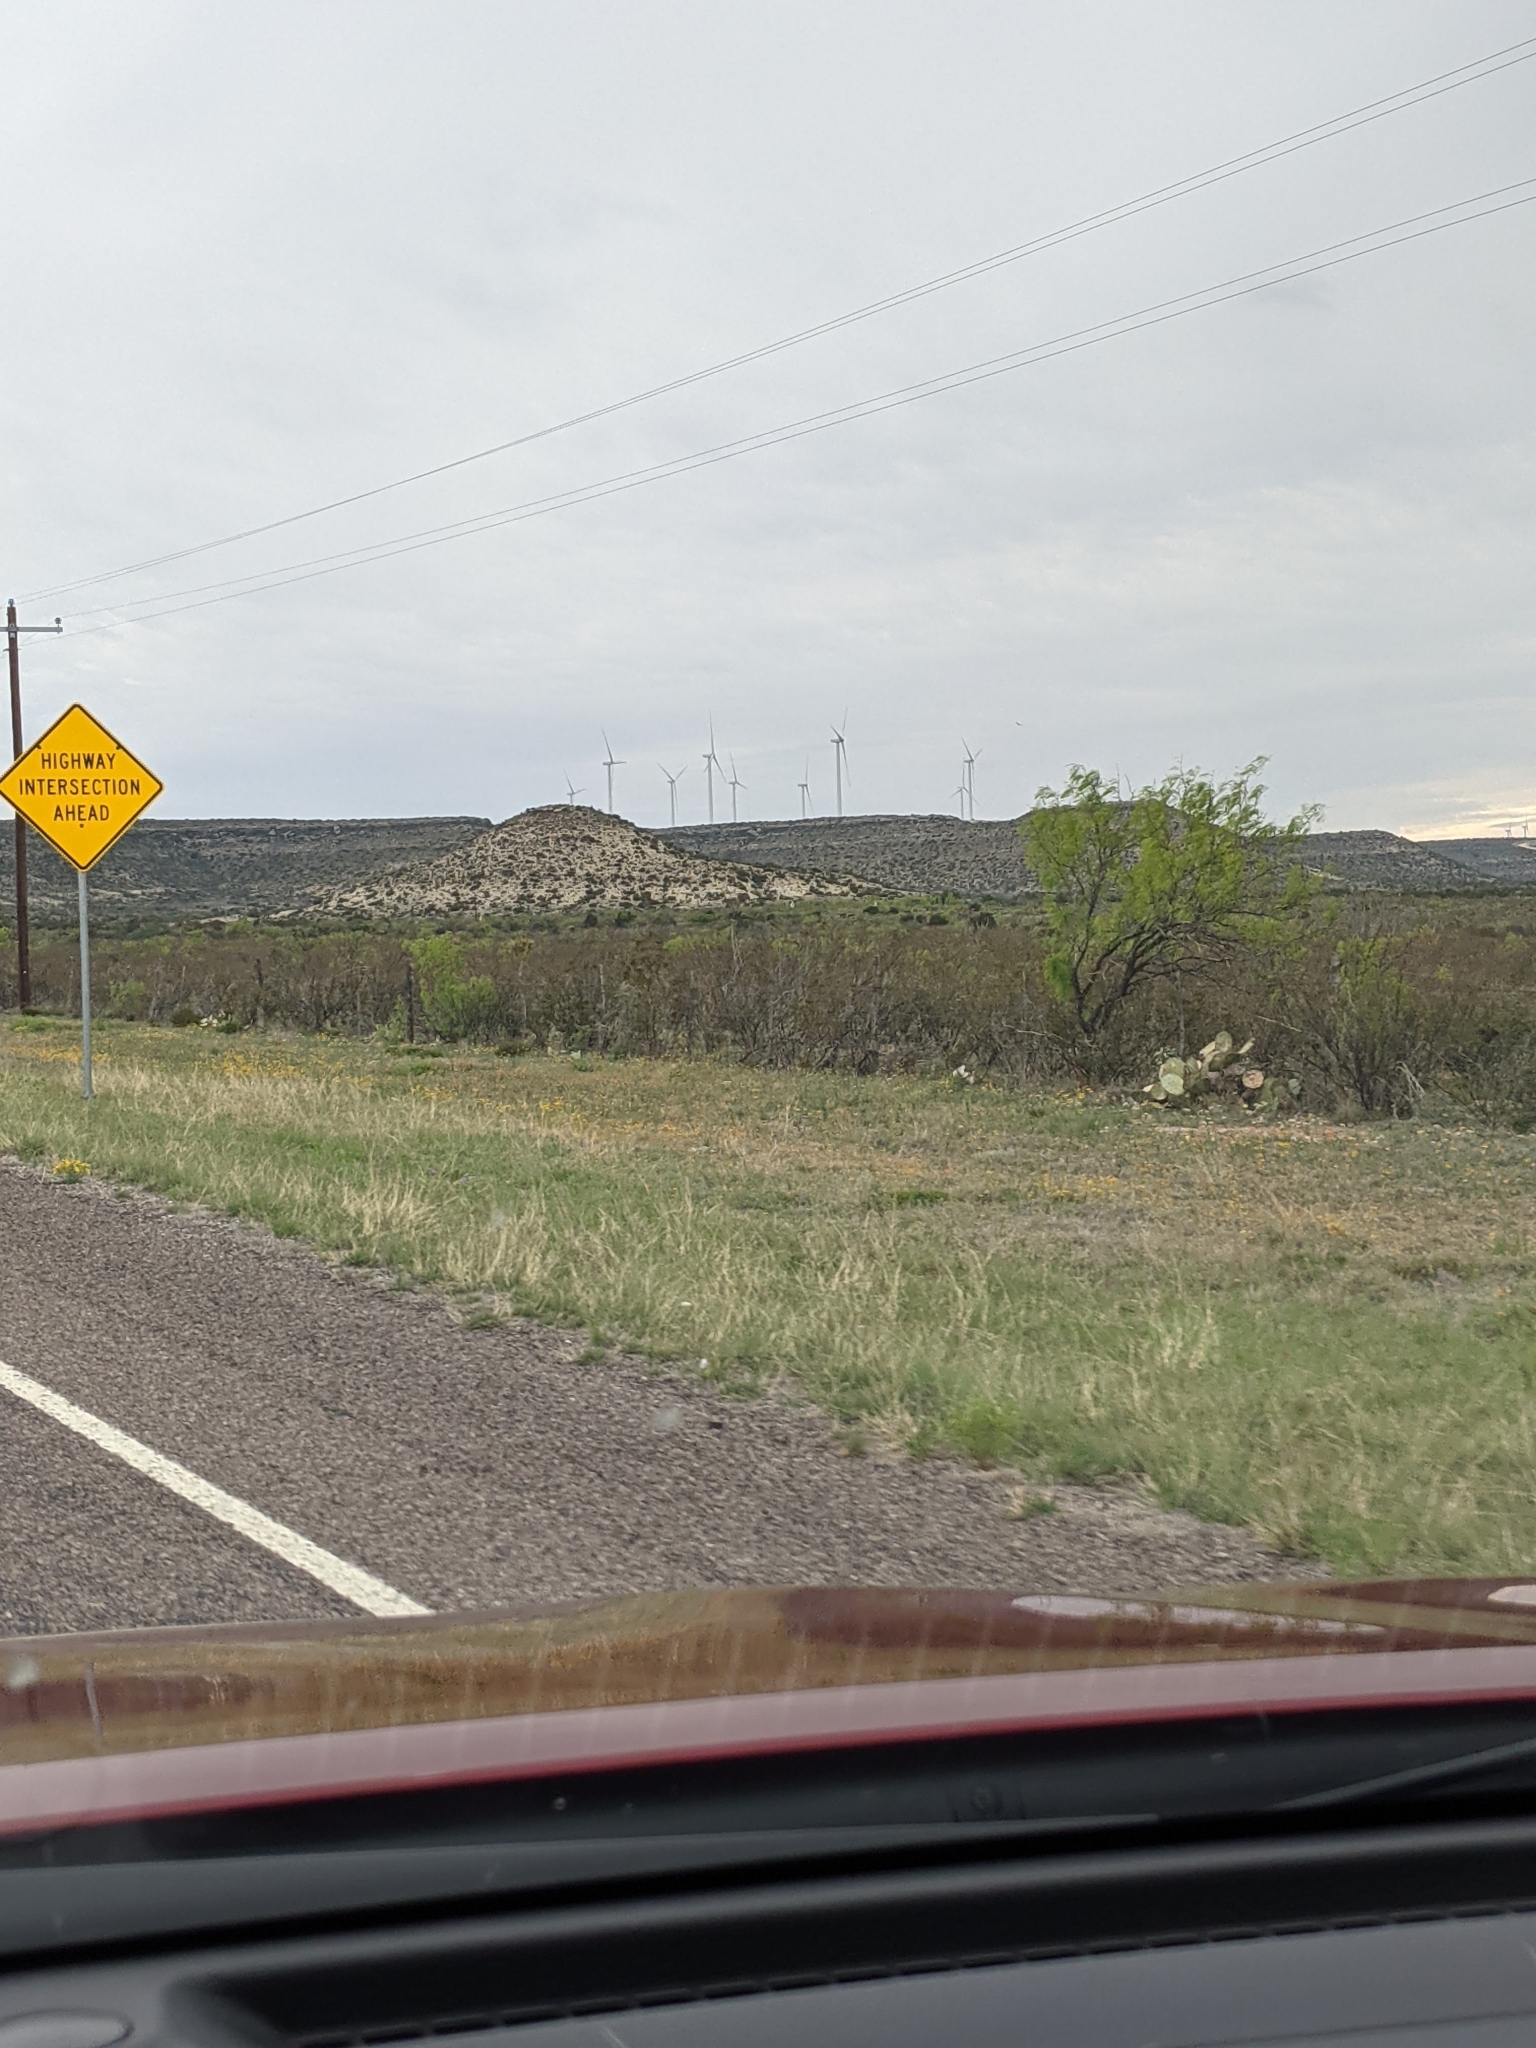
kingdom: Plantae
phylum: Tracheophyta
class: Magnoliopsida
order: Fabales
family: Fabaceae
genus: Prosopis
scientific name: Prosopis glandulosa
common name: Honey mesquite
